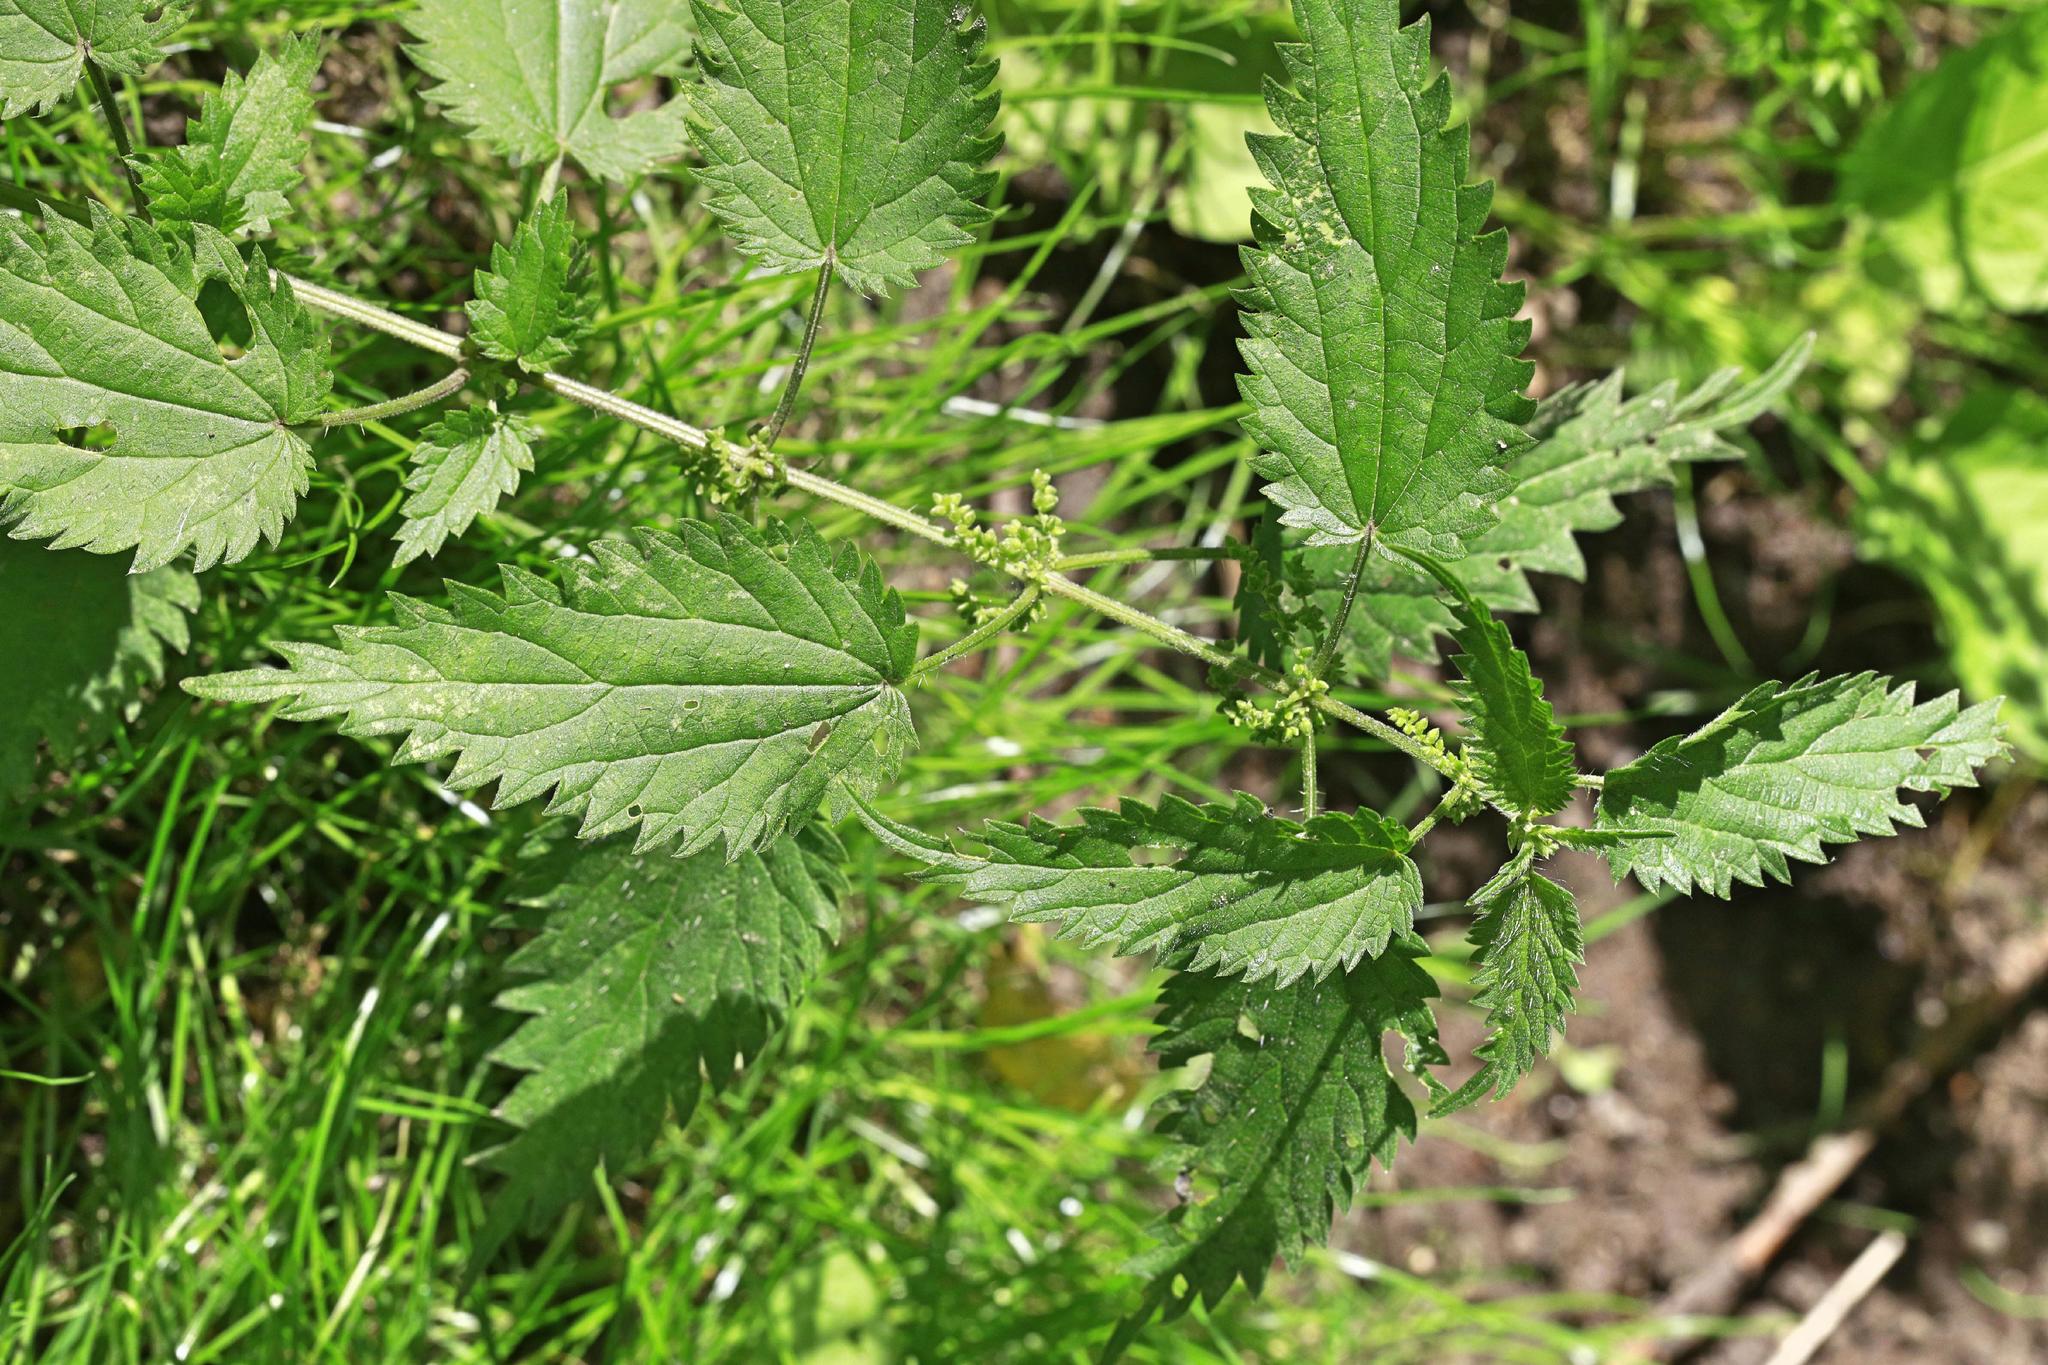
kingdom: Plantae
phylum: Tracheophyta
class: Magnoliopsida
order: Rosales
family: Urticaceae
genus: Urtica
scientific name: Urtica dioica
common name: Common nettle
